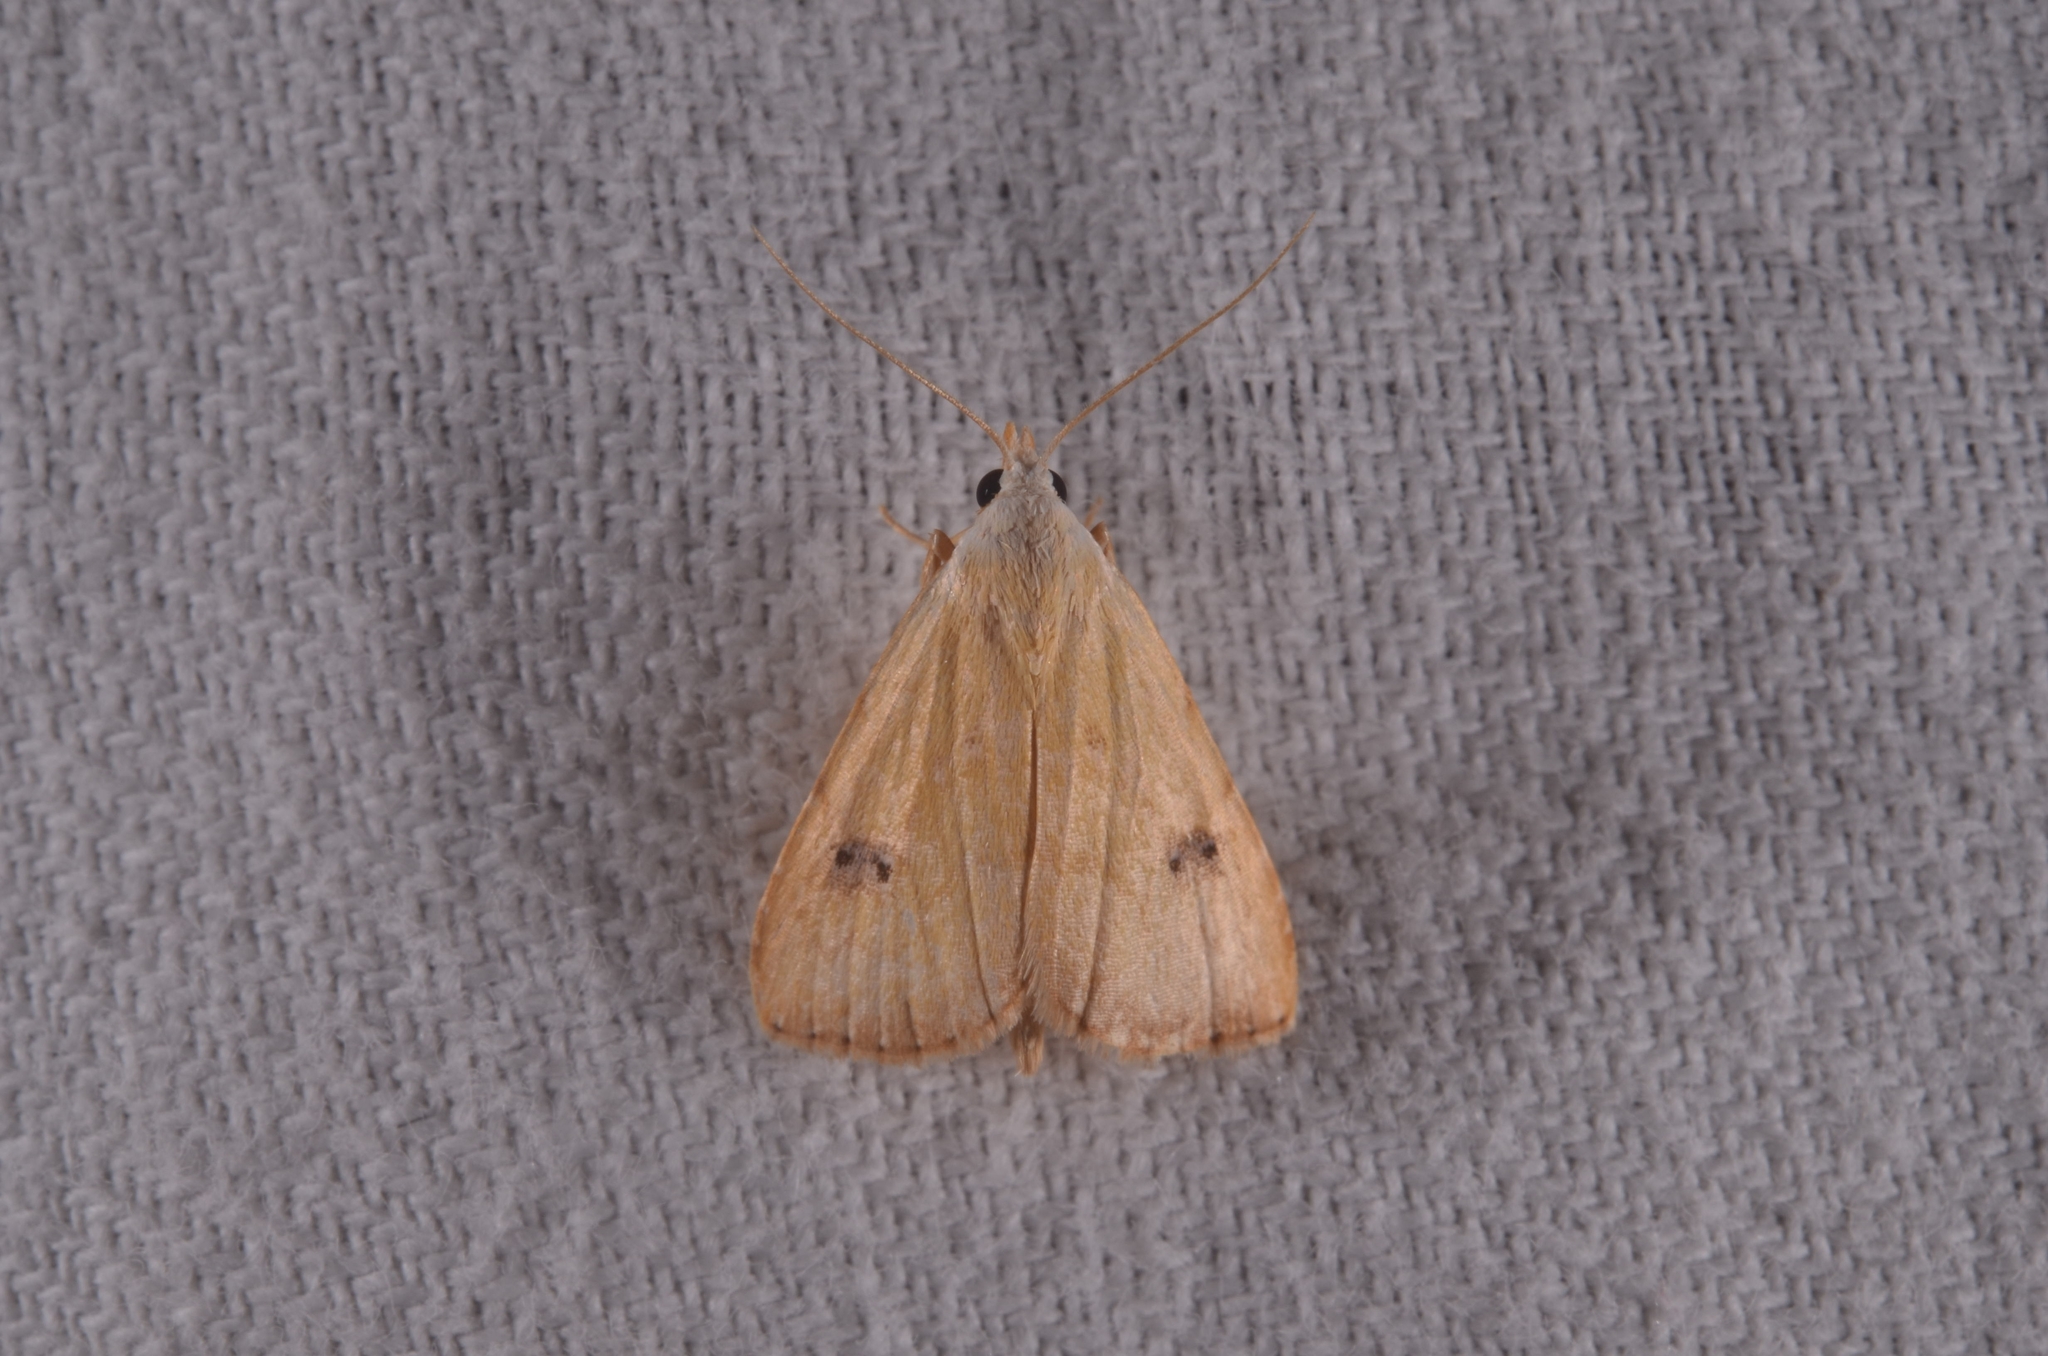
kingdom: Animalia
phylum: Arthropoda
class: Insecta
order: Lepidoptera
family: Erebidae
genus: Rivula
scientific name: Rivula sericealis
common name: Straw dot
